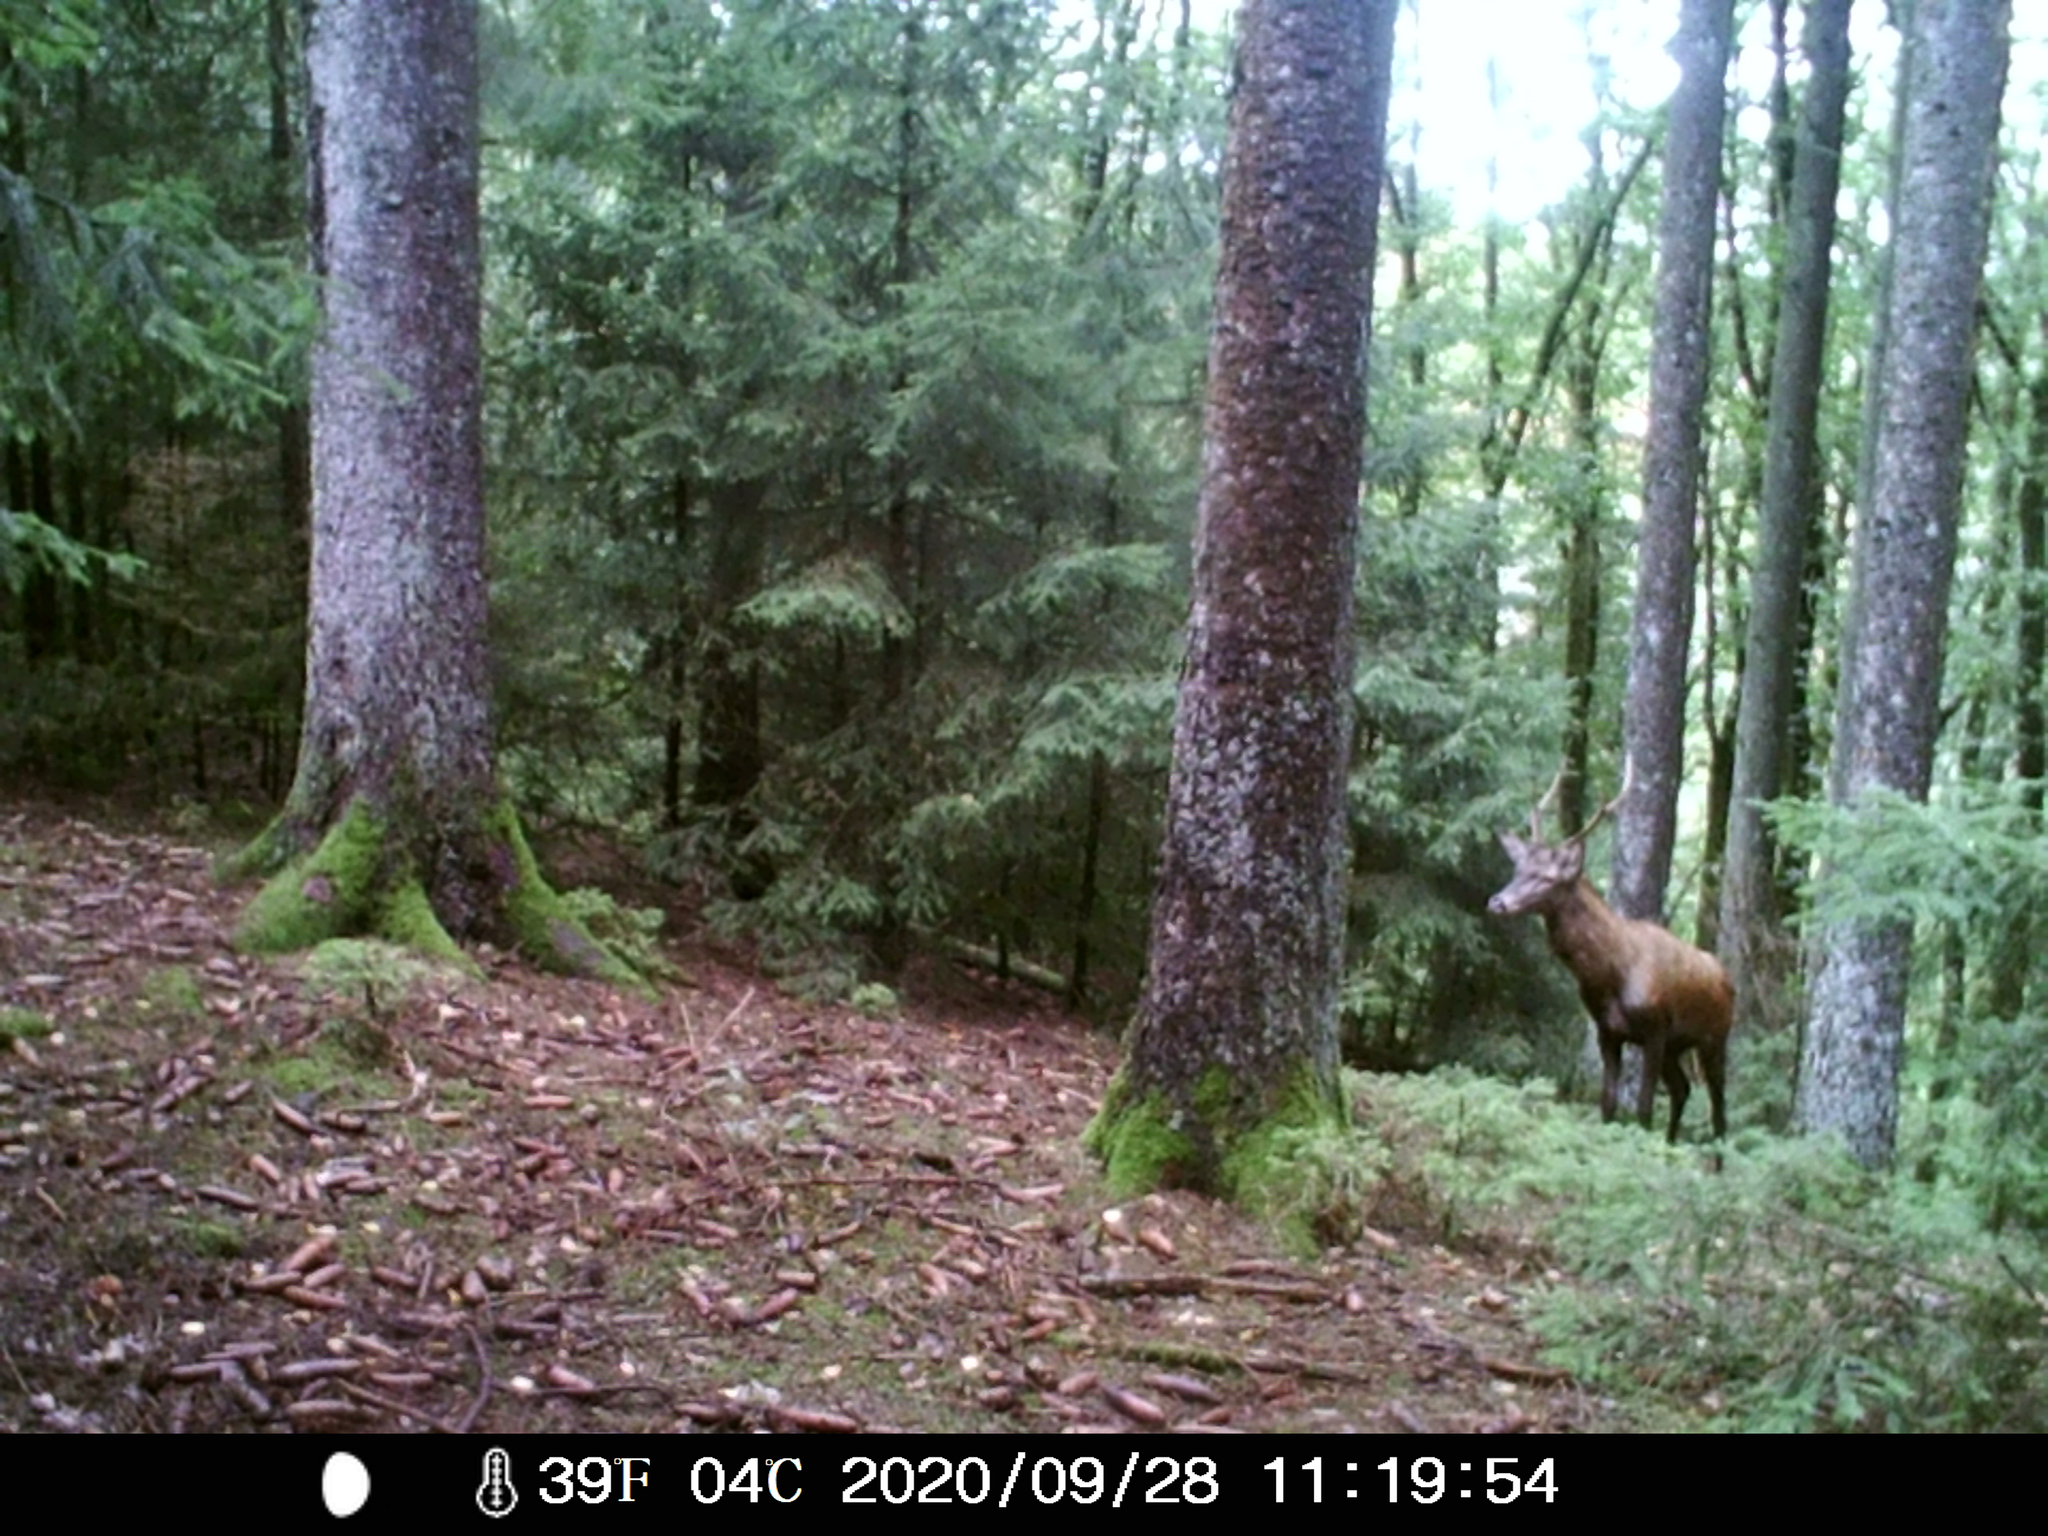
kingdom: Animalia
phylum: Chordata
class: Mammalia
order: Artiodactyla
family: Cervidae
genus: Cervus
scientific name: Cervus elaphus
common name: Red deer
